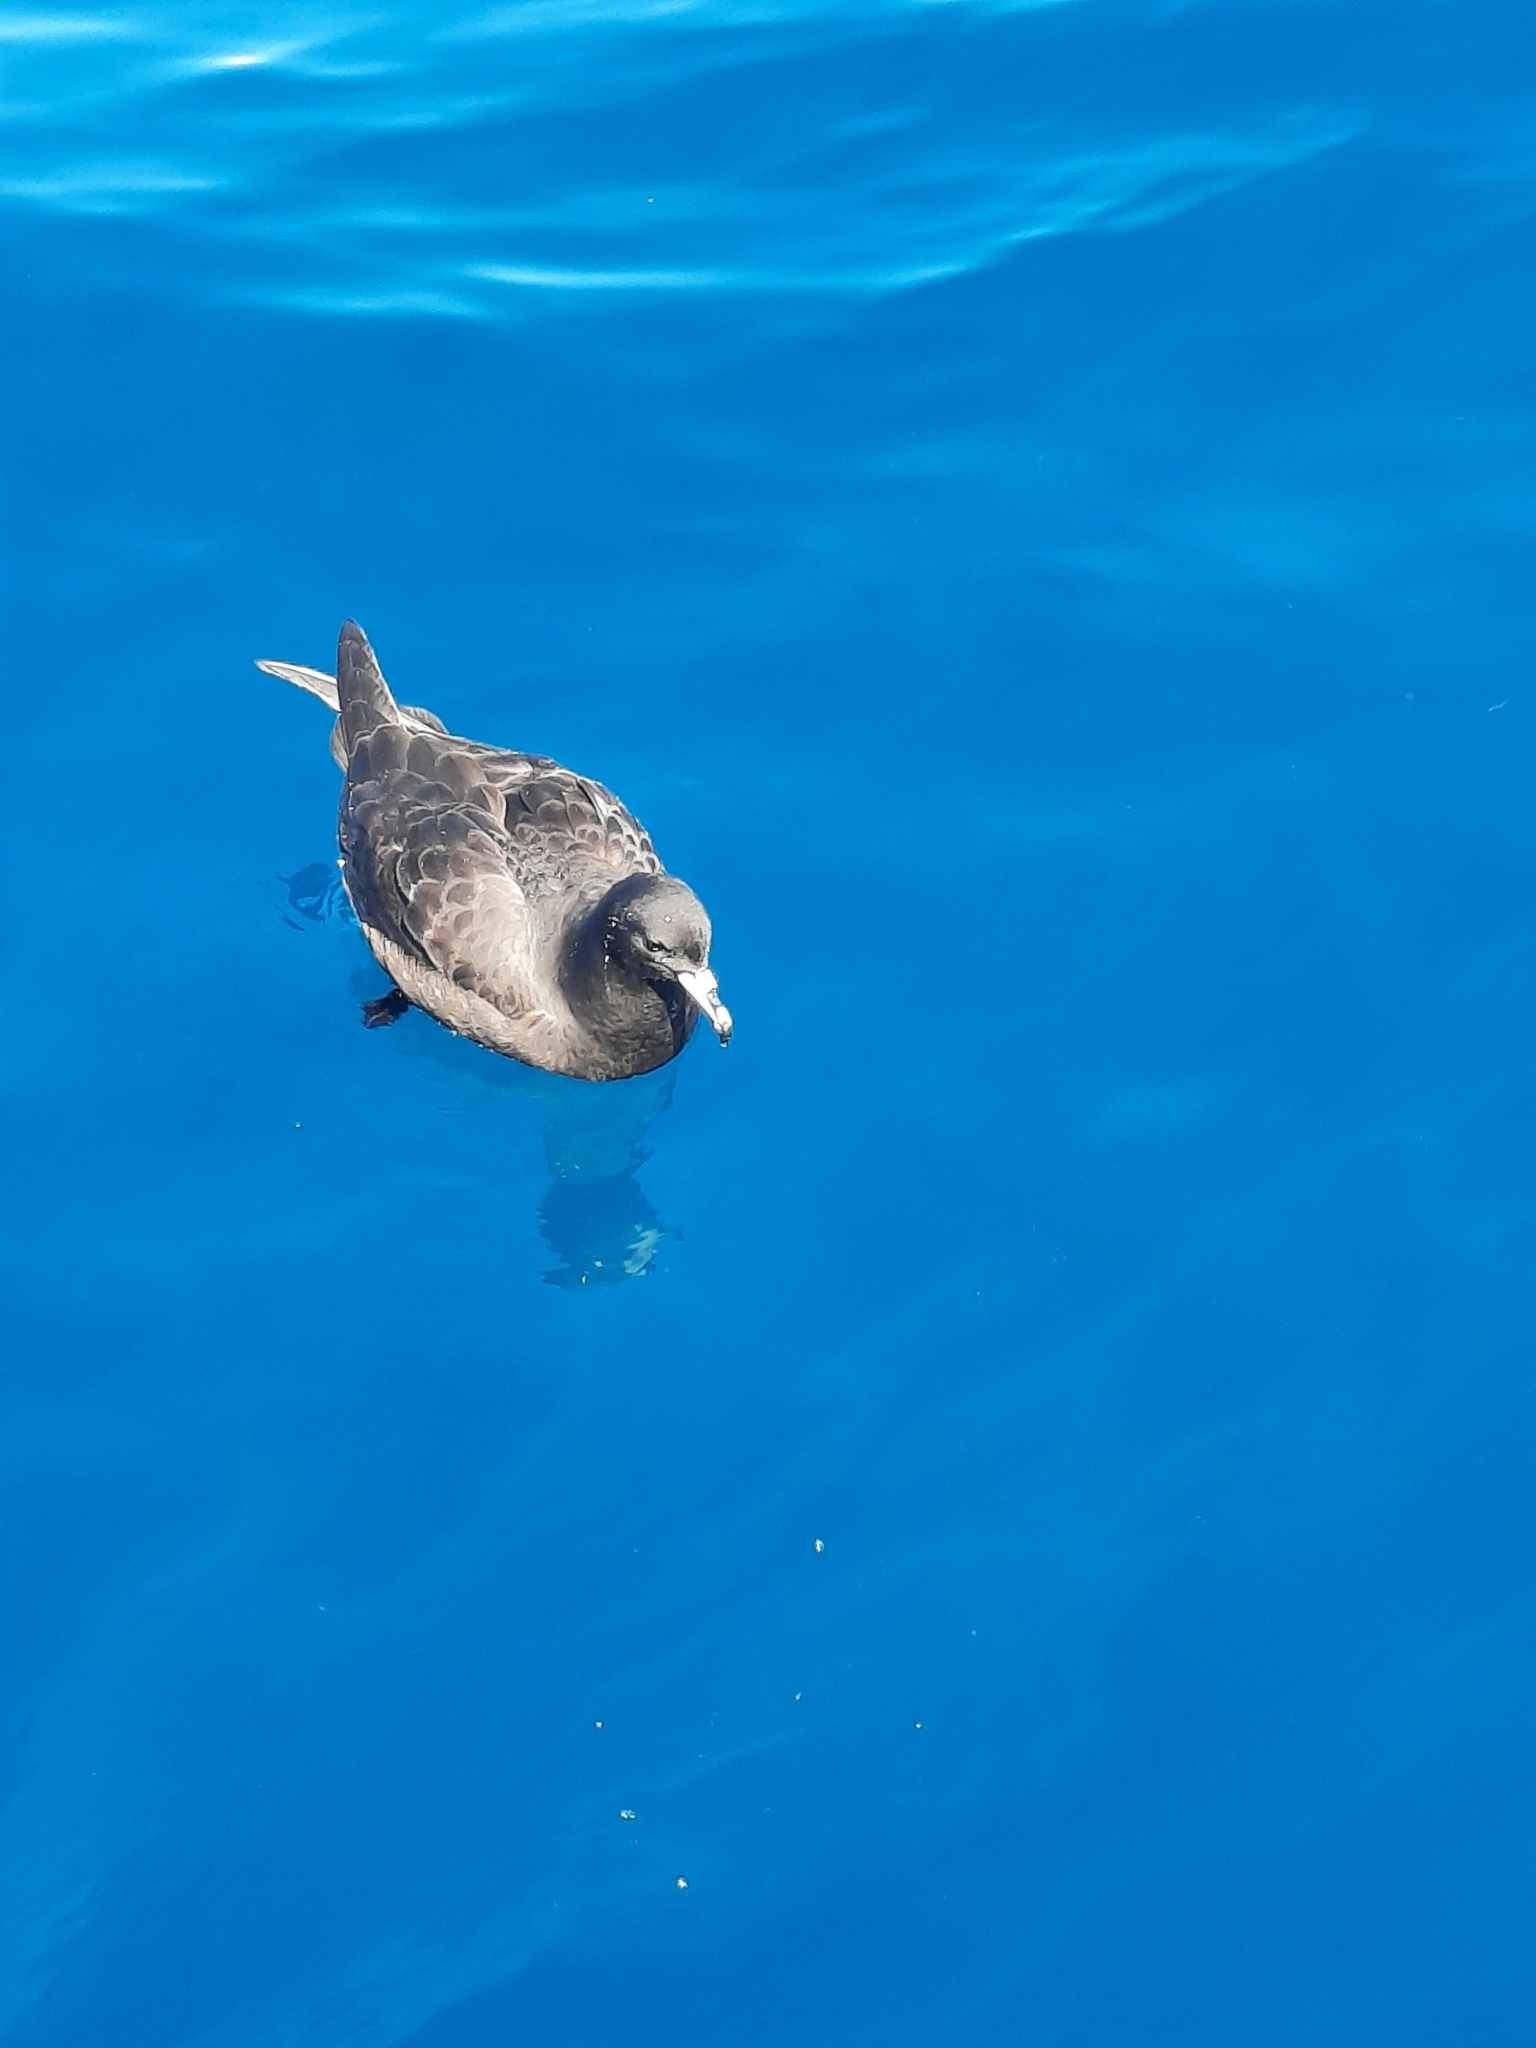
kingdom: Animalia
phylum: Chordata
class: Aves
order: Procellariiformes
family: Procellariidae
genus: Procellaria
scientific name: Procellaria parkinsoni
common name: Black petrel
